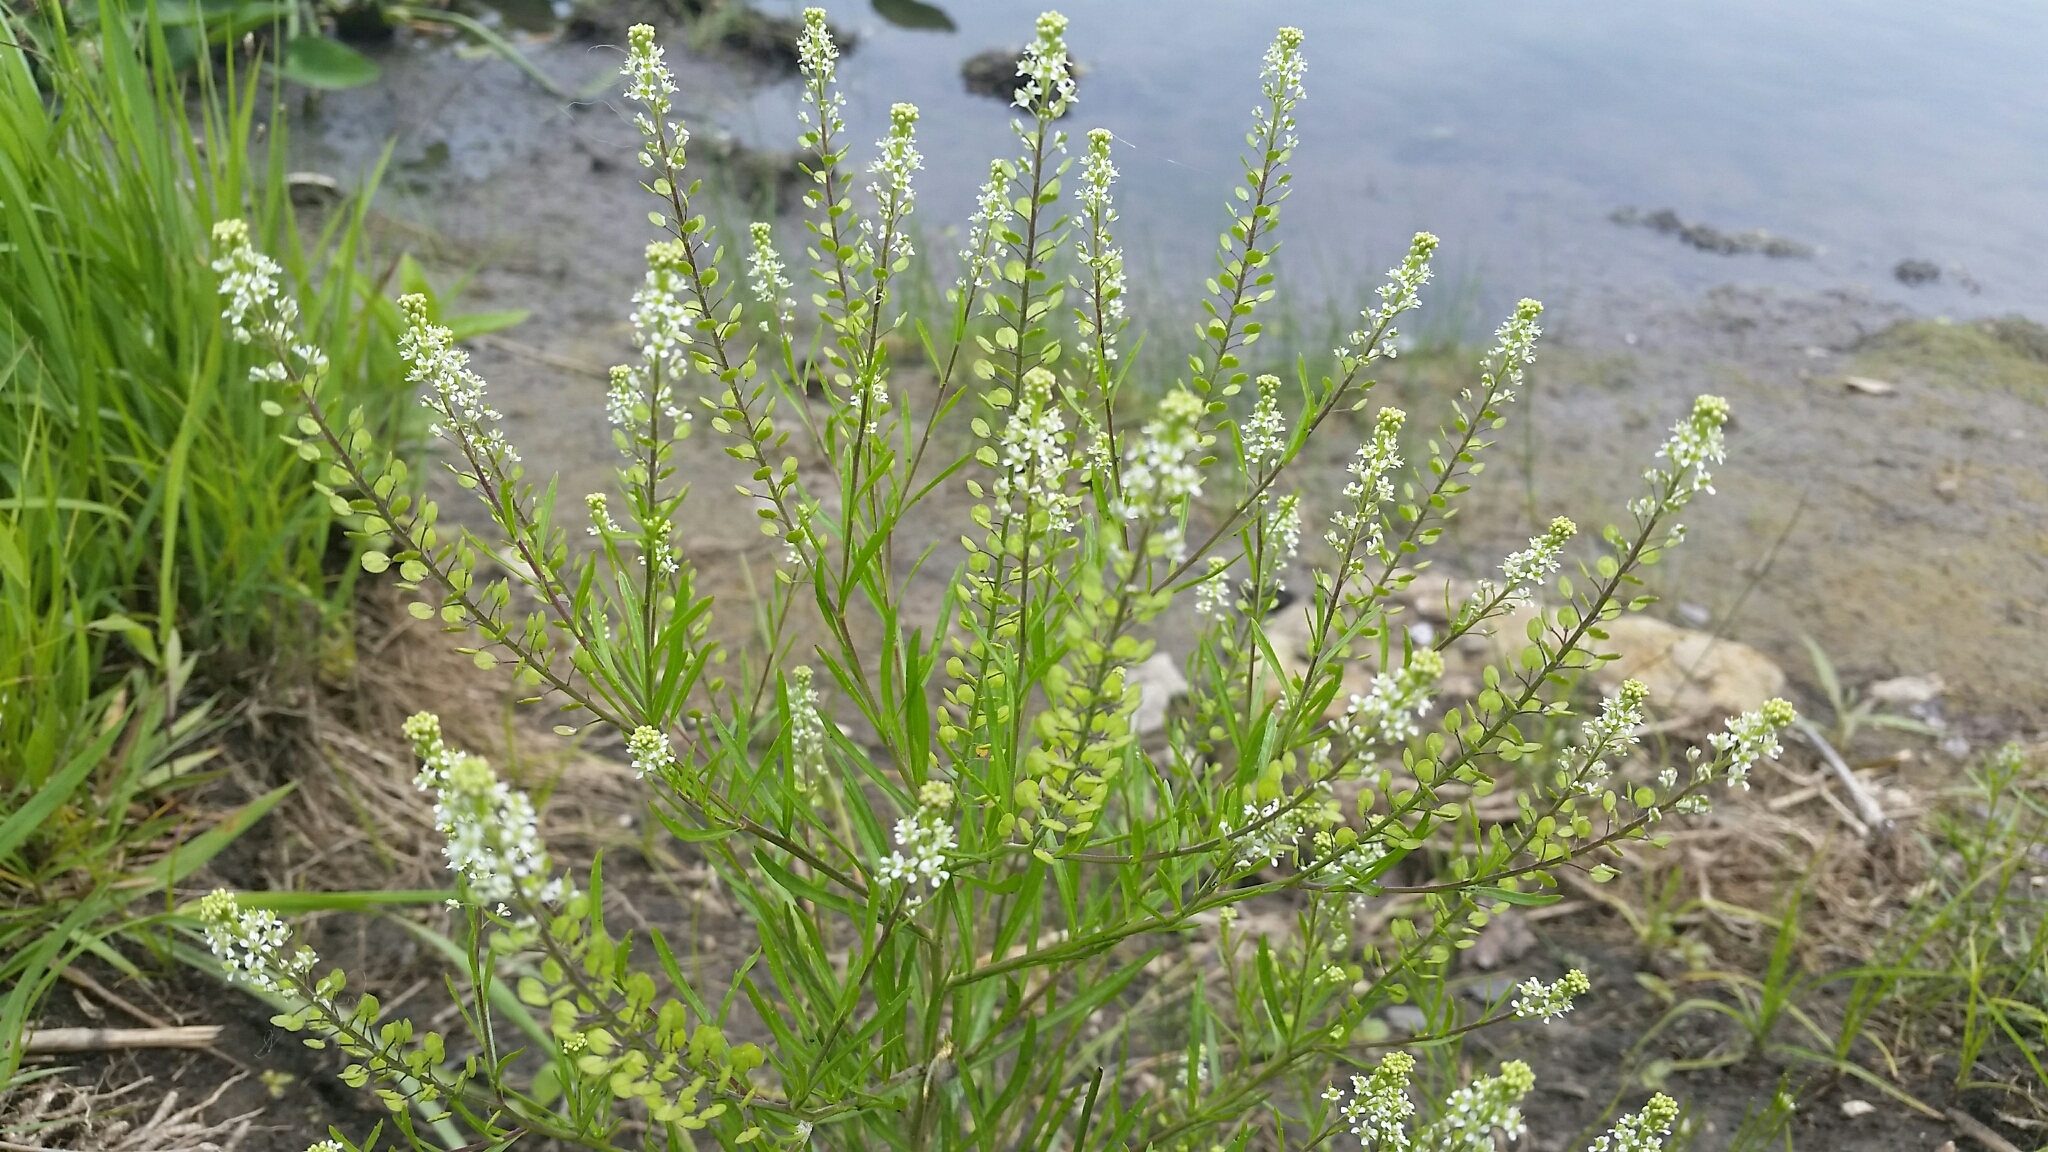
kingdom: Plantae
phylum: Tracheophyta
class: Magnoliopsida
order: Brassicales
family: Brassicaceae
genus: Lepidium
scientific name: Lepidium densiflorum
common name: Miner's pepperwort
